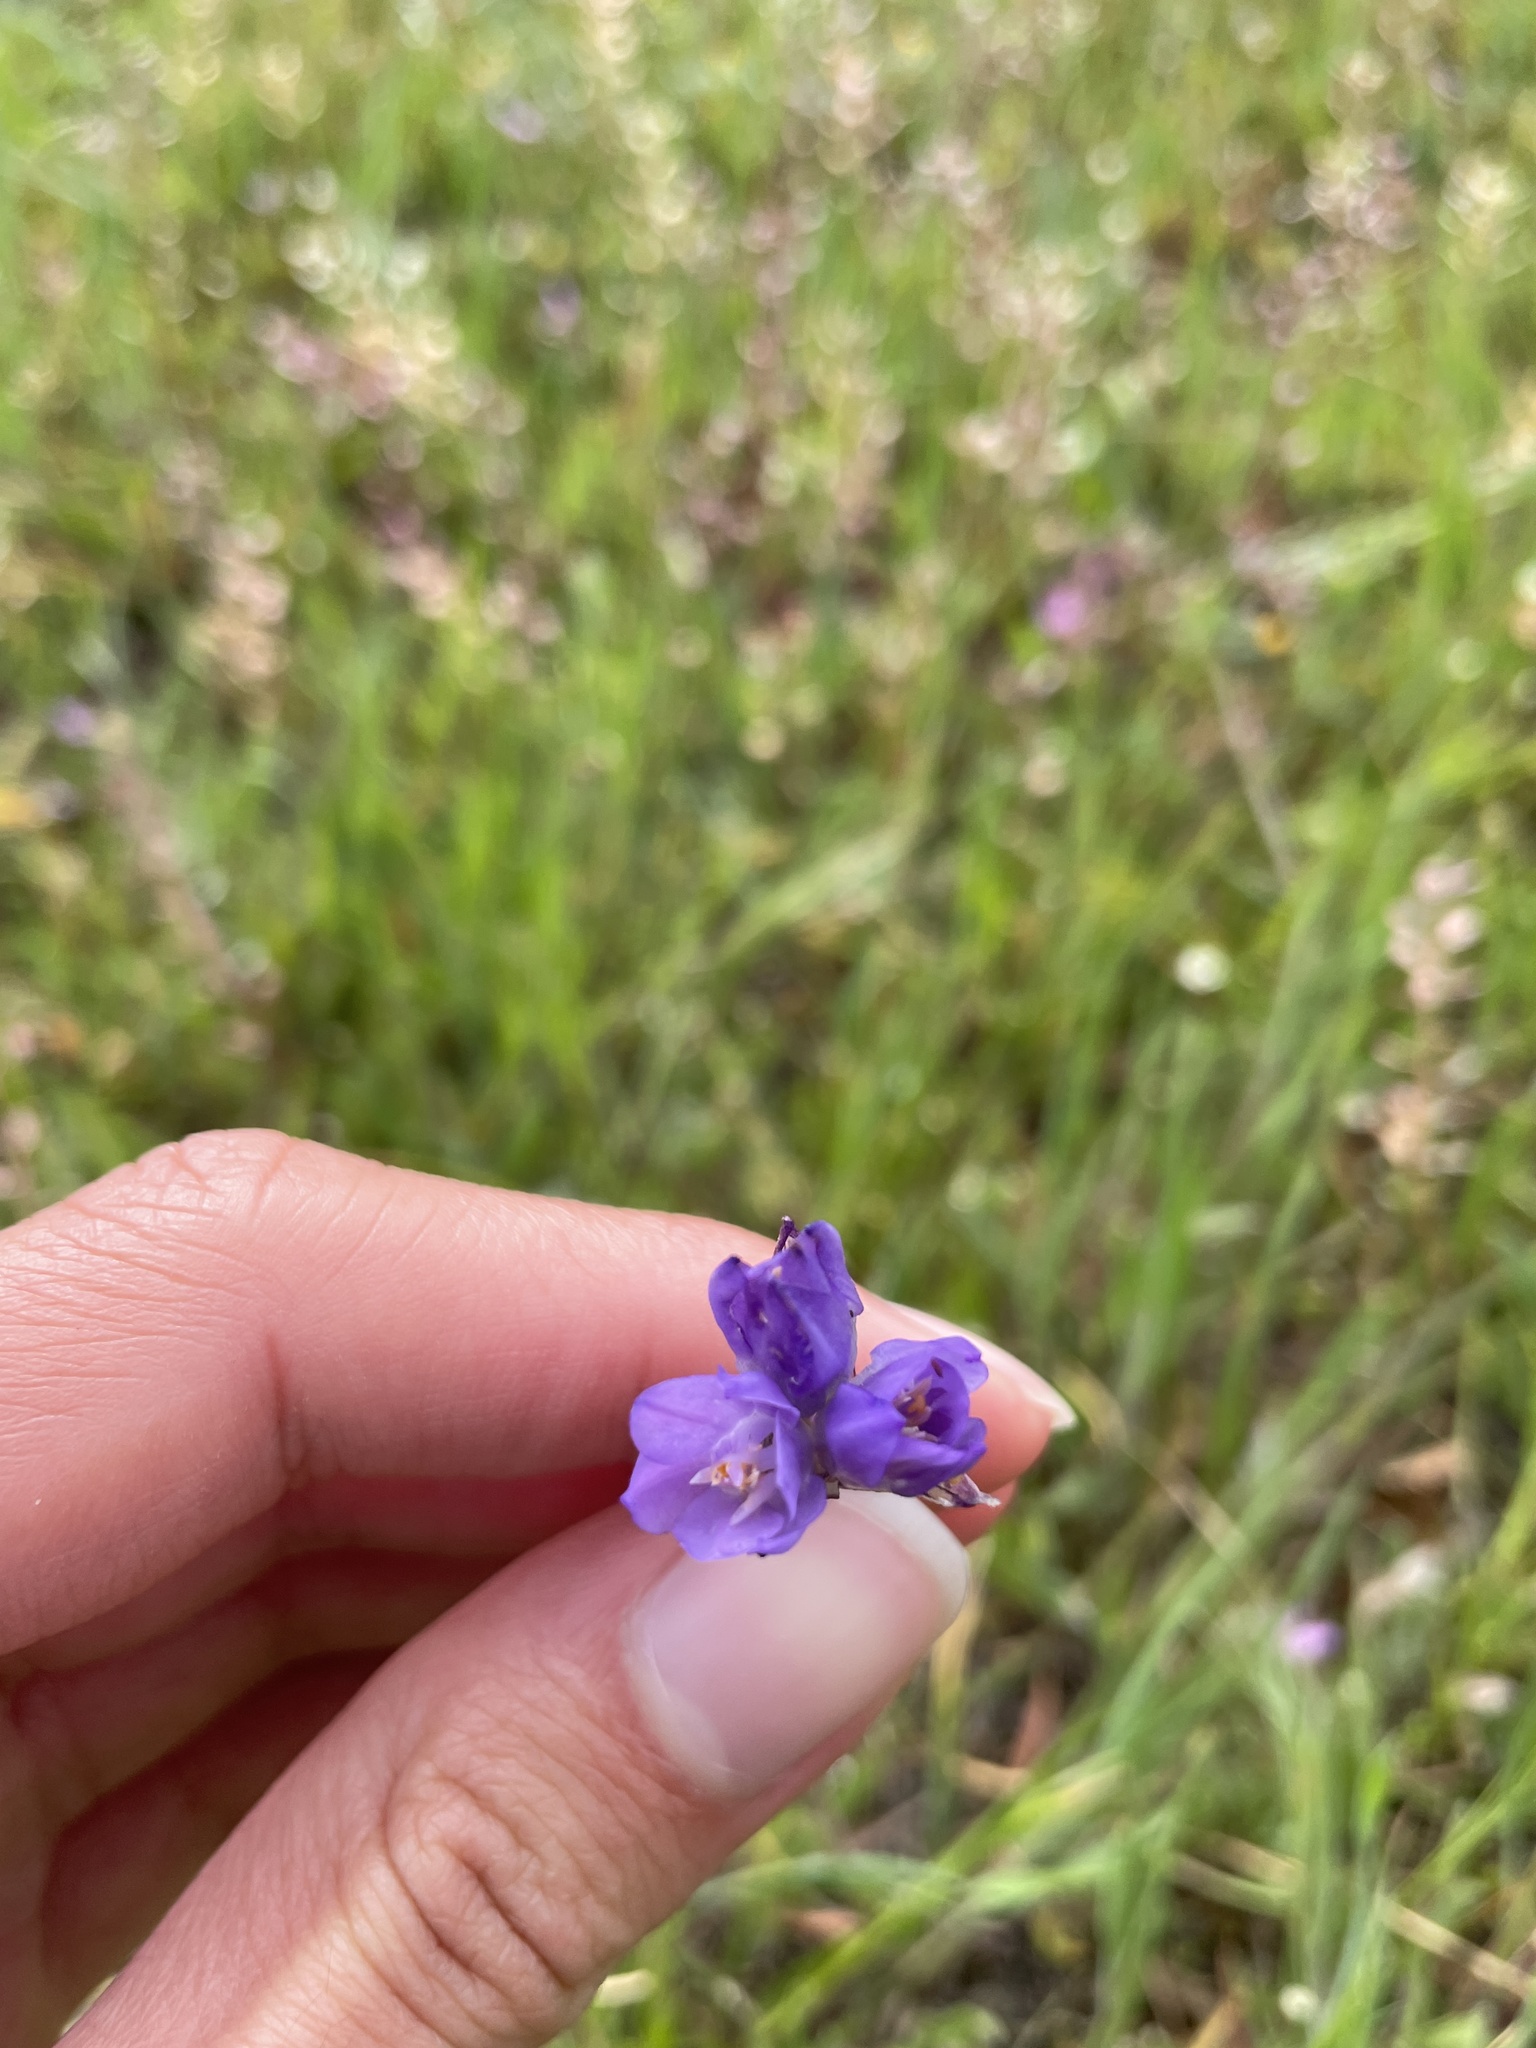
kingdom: Plantae
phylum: Tracheophyta
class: Liliopsida
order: Asparagales
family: Asparagaceae
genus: Dipterostemon
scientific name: Dipterostemon capitatus
